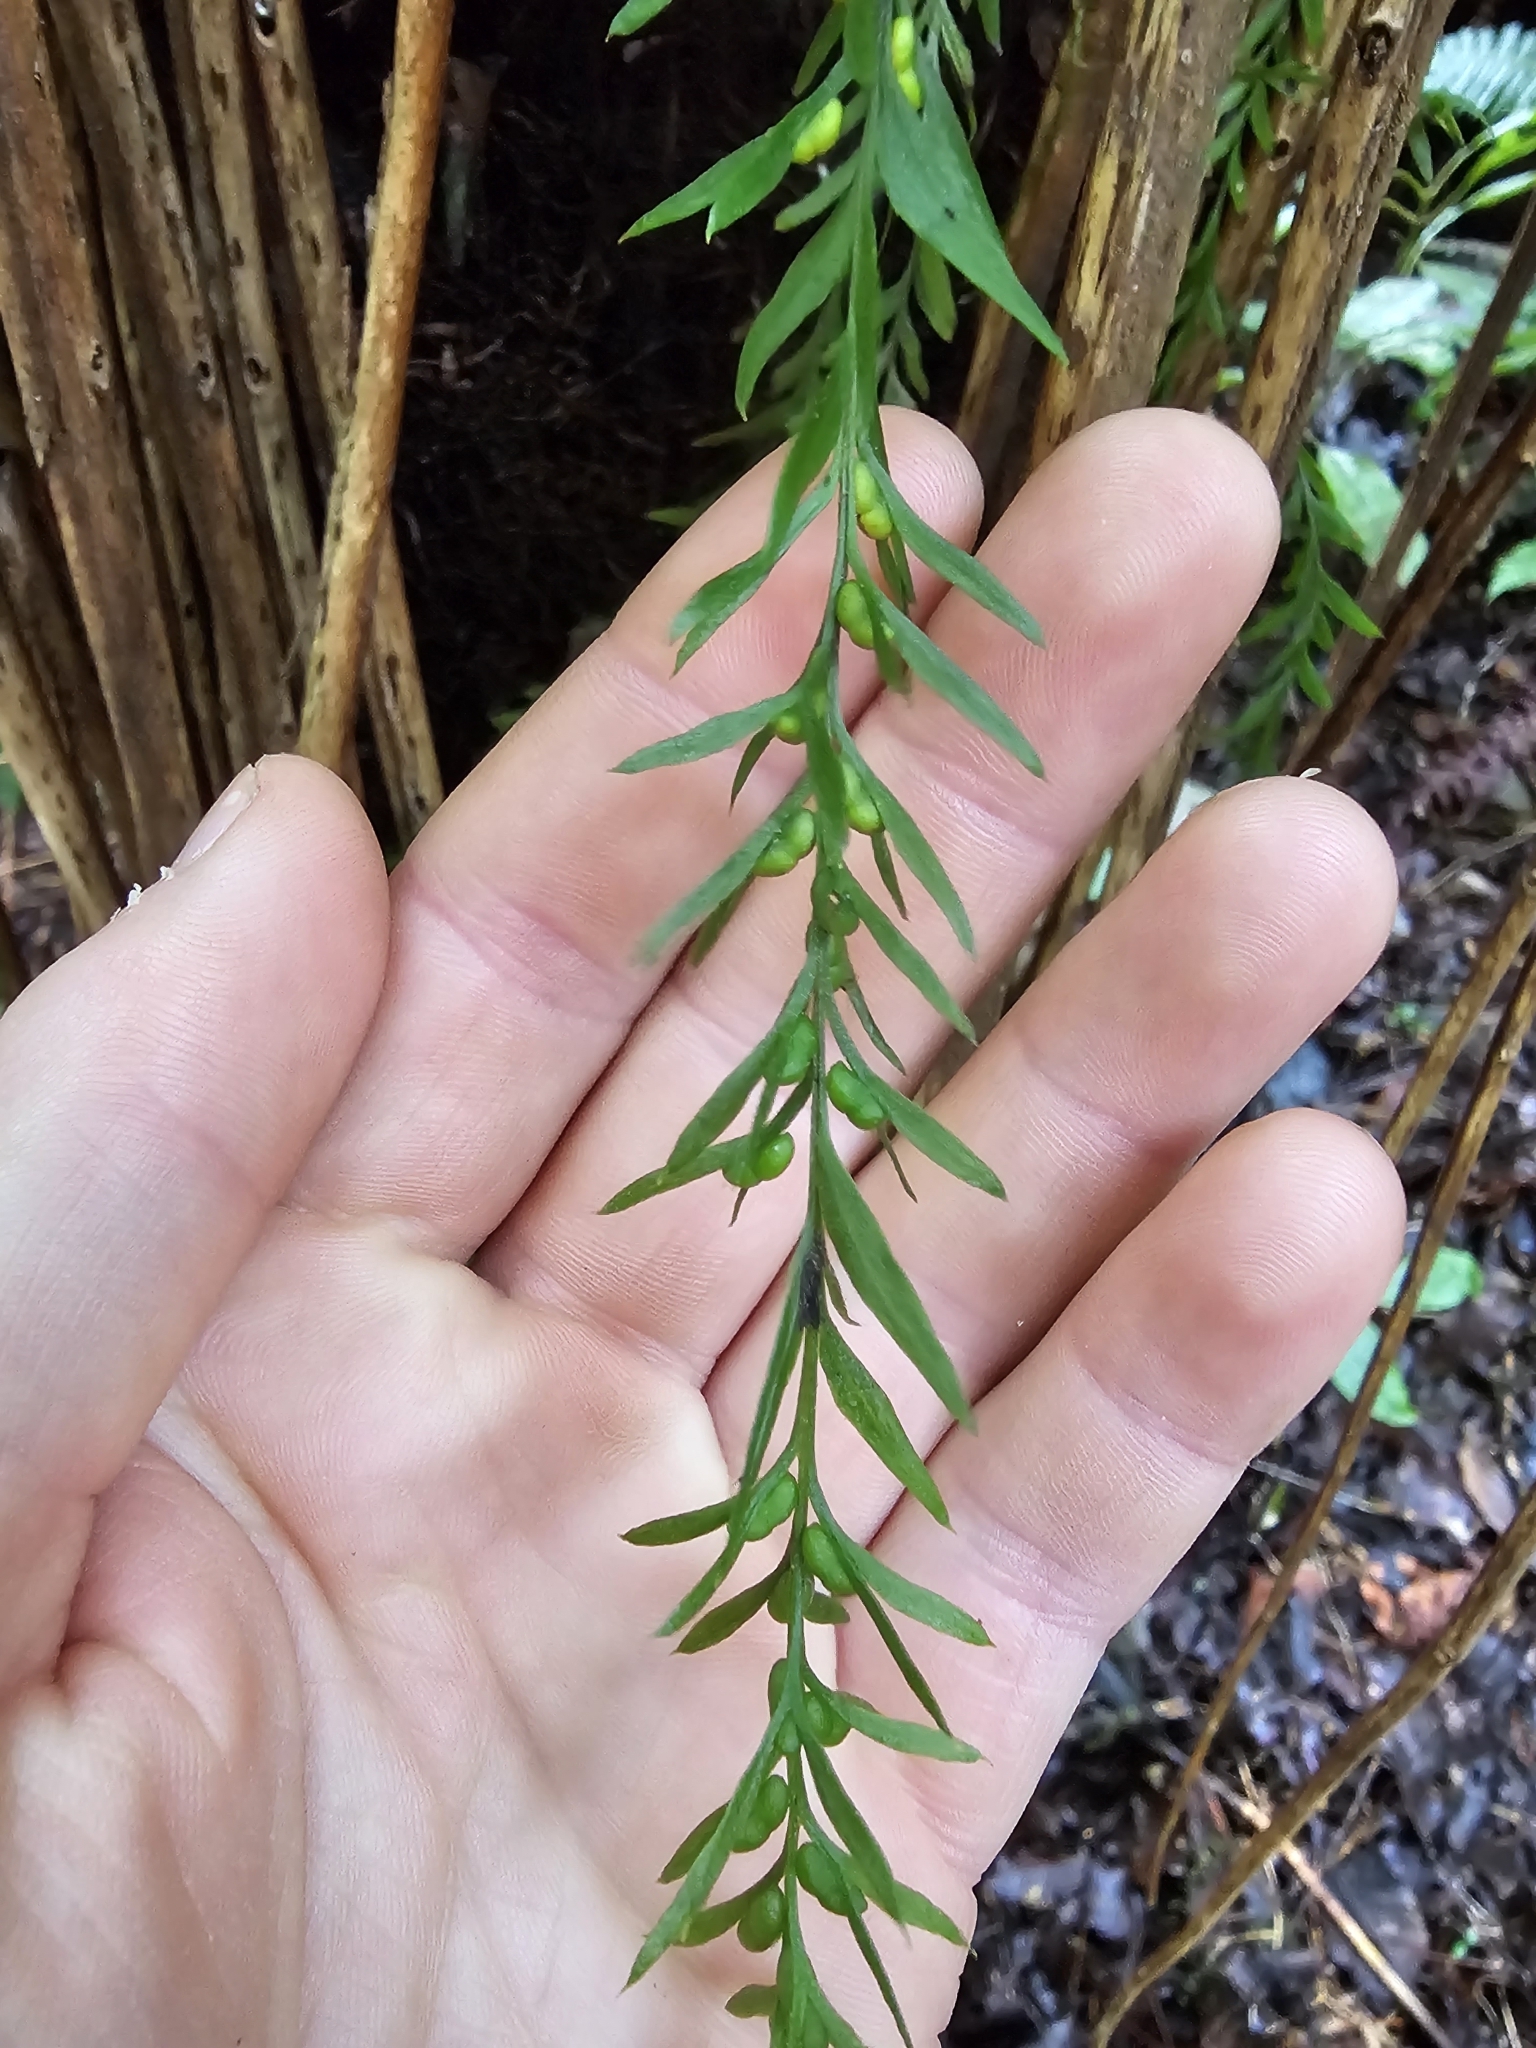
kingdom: Plantae
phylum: Tracheophyta
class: Polypodiopsida
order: Psilotales
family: Psilotaceae
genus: Tmesipteris
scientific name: Tmesipteris elongata
